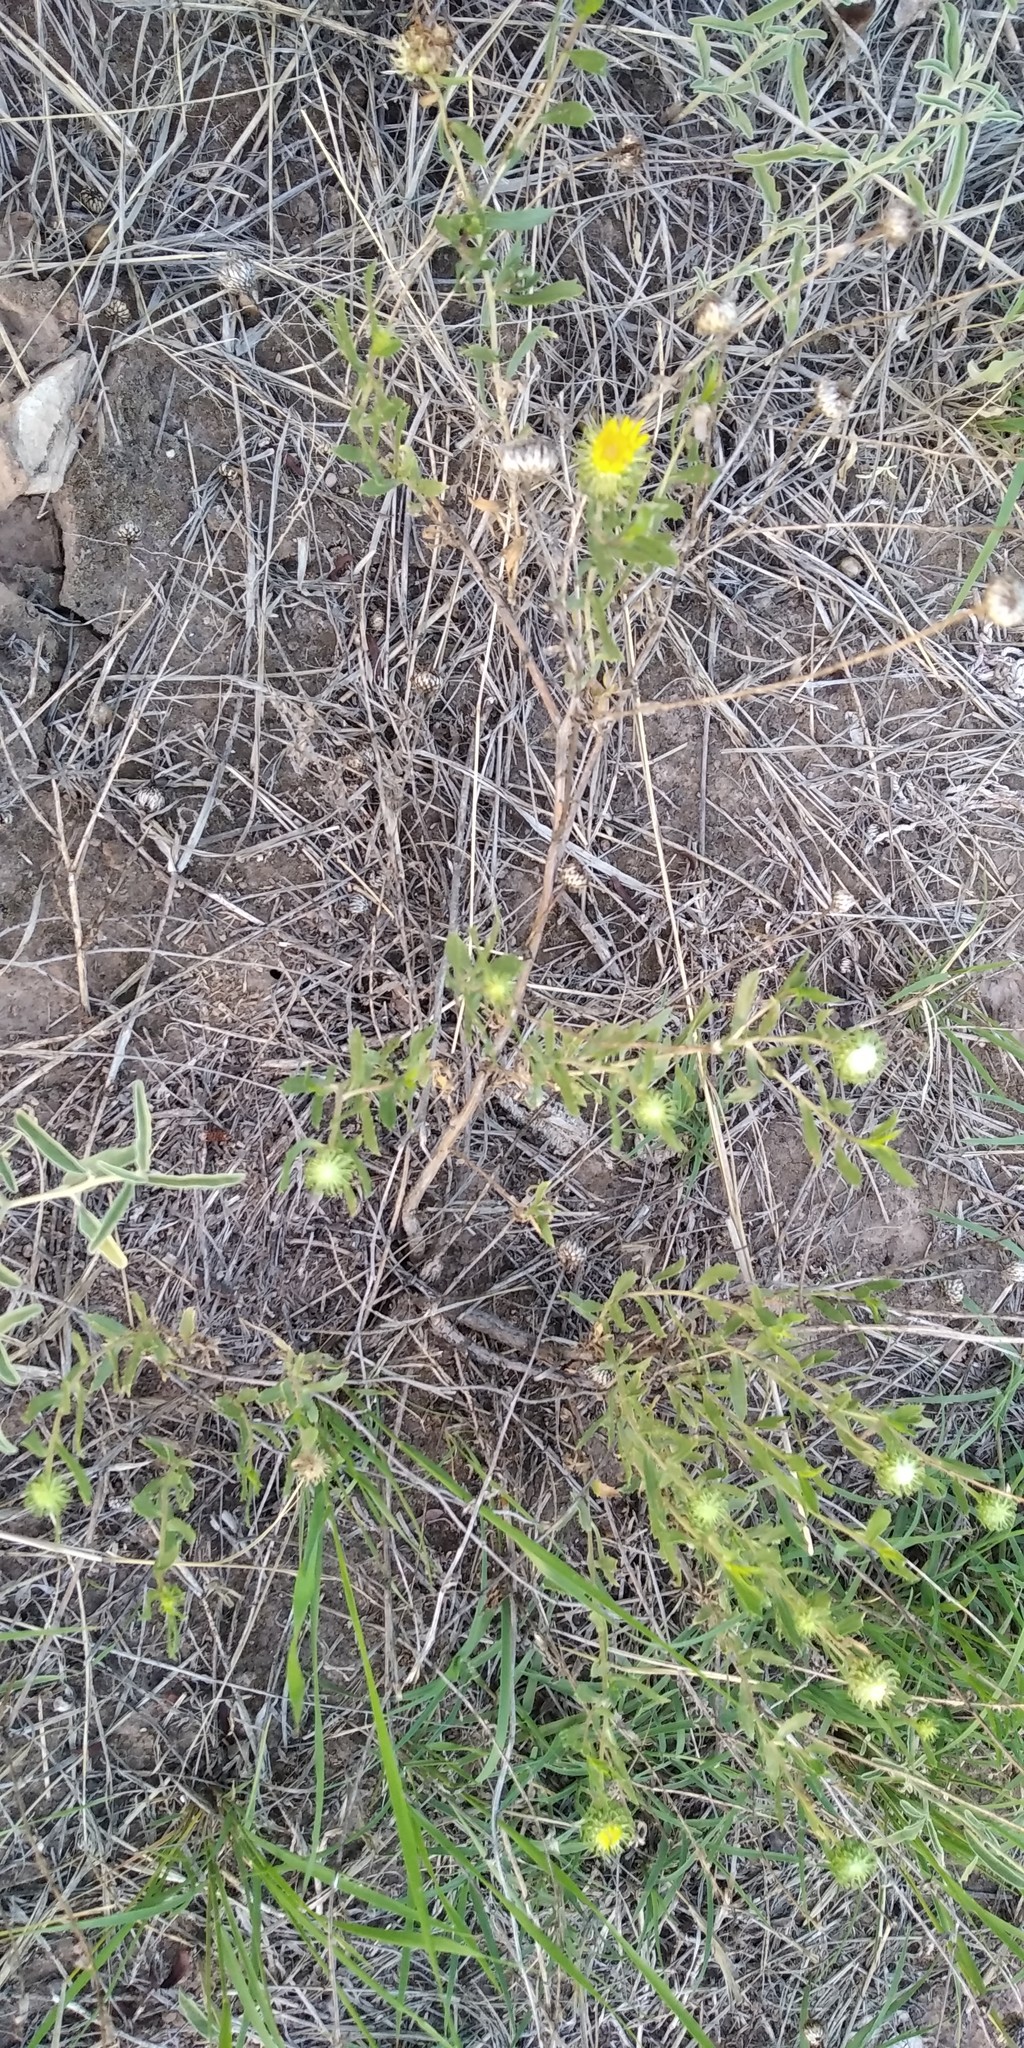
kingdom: Plantae
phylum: Tracheophyta
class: Magnoliopsida
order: Asterales
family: Asteraceae
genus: Grindelia
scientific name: Grindelia pulchella
